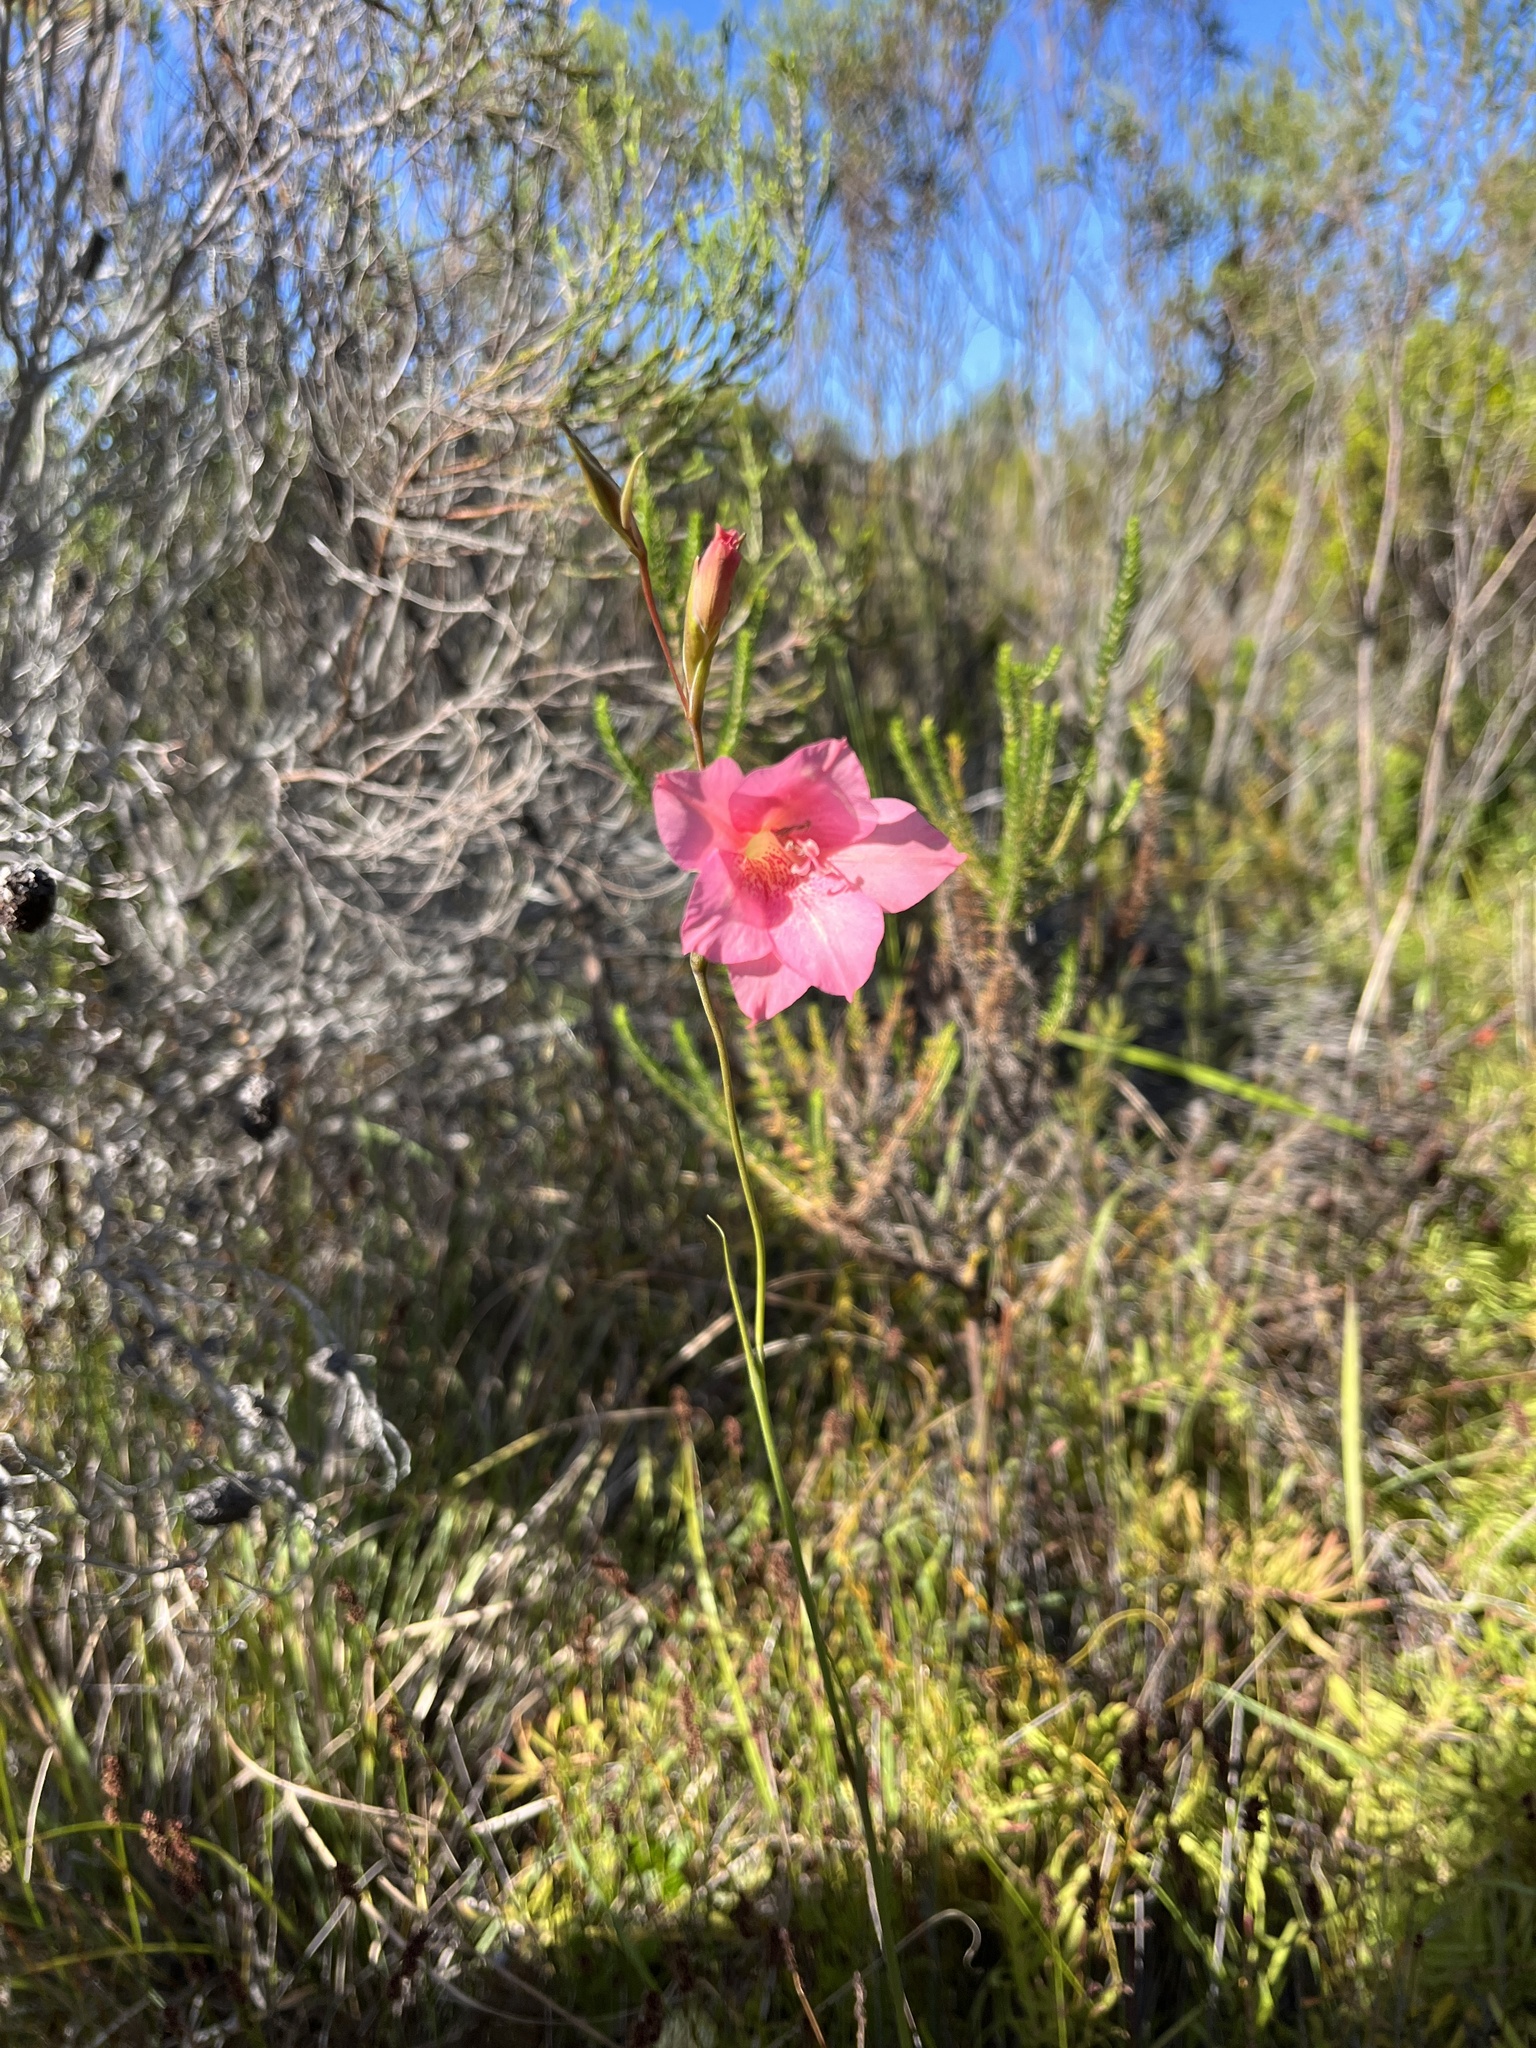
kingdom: Plantae
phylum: Tracheophyta
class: Liliopsida
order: Asparagales
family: Iridaceae
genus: Gladiolus
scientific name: Gladiolus meridionalis
